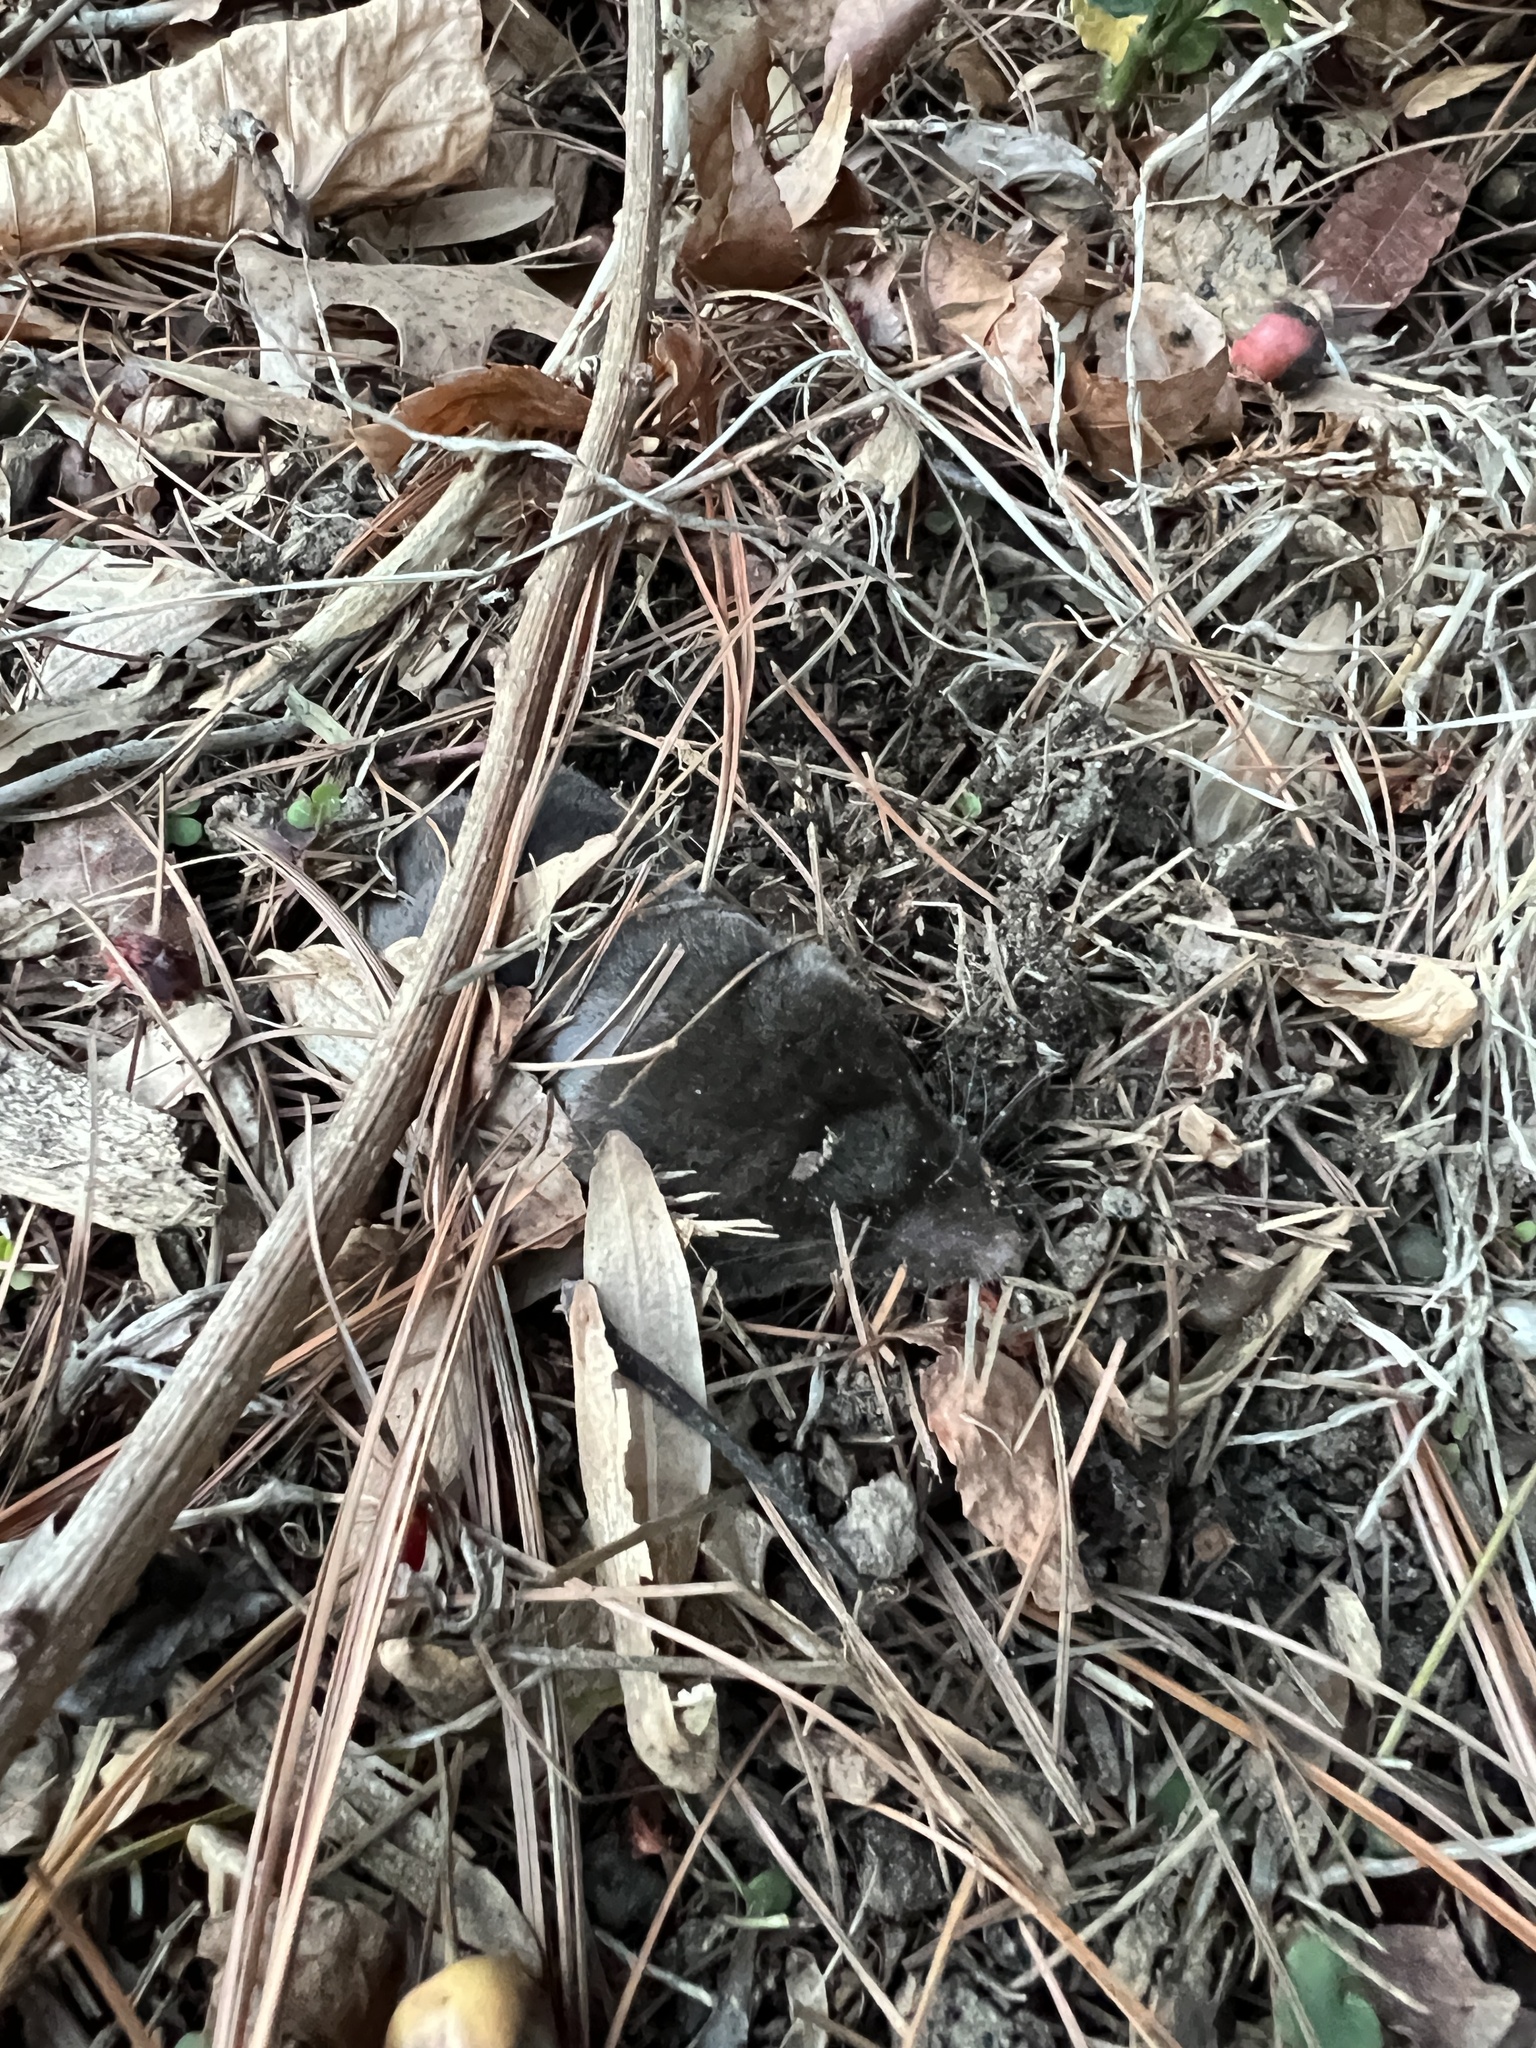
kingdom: Animalia
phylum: Chordata
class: Mammalia
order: Soricomorpha
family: Soricidae
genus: Blarina
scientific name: Blarina brevicauda
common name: Northern short-tailed shrew
